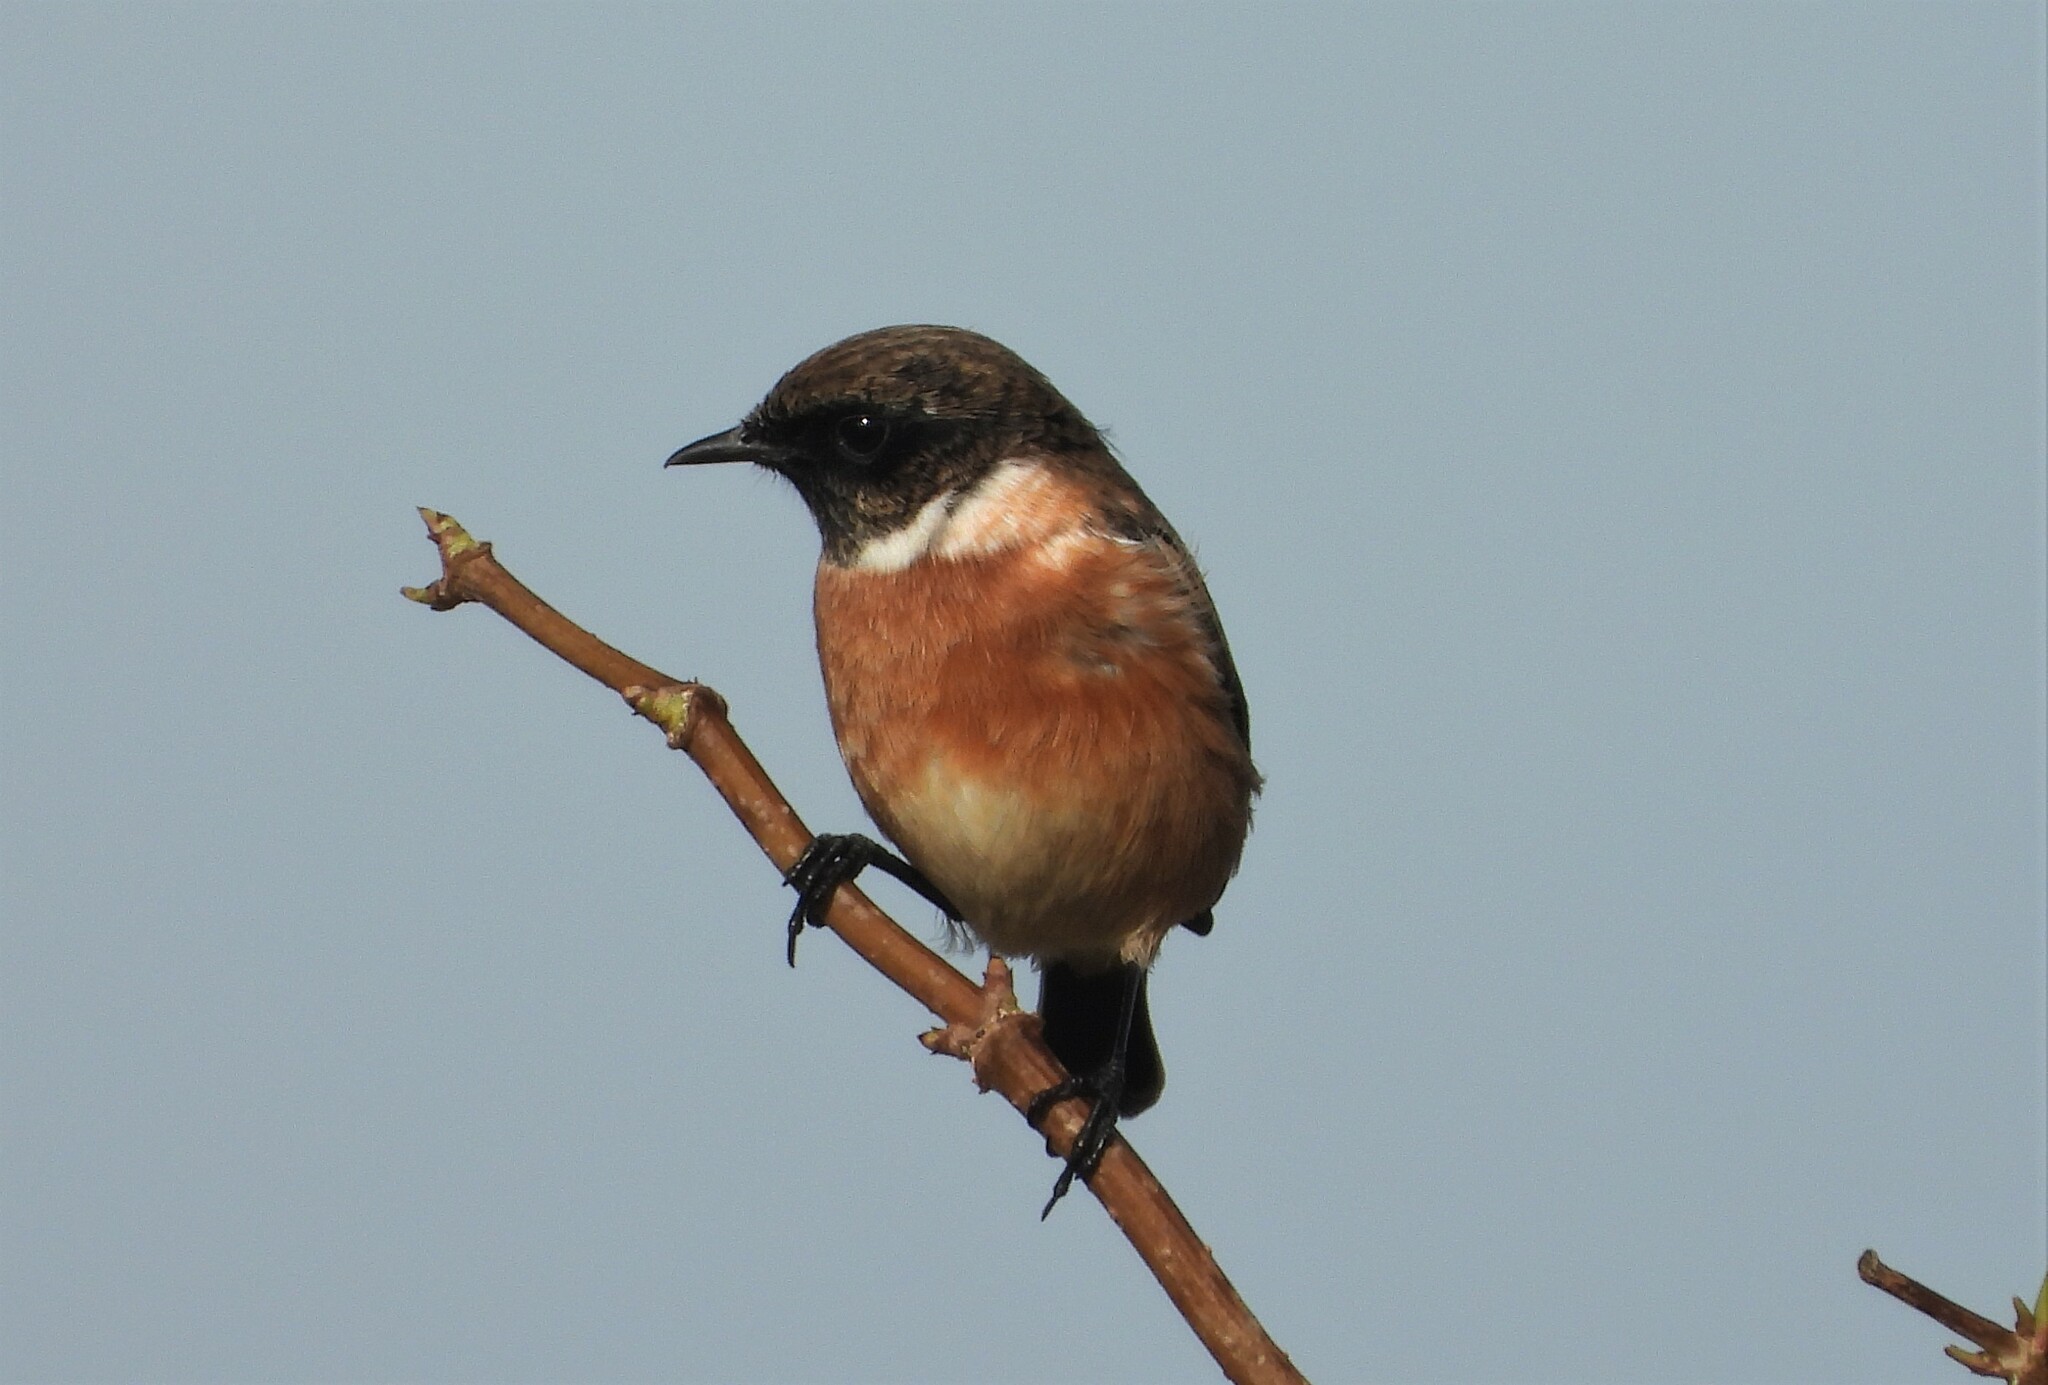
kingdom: Animalia
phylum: Chordata
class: Aves
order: Passeriformes
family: Muscicapidae
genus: Saxicola
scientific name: Saxicola rubicola
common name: European stonechat
